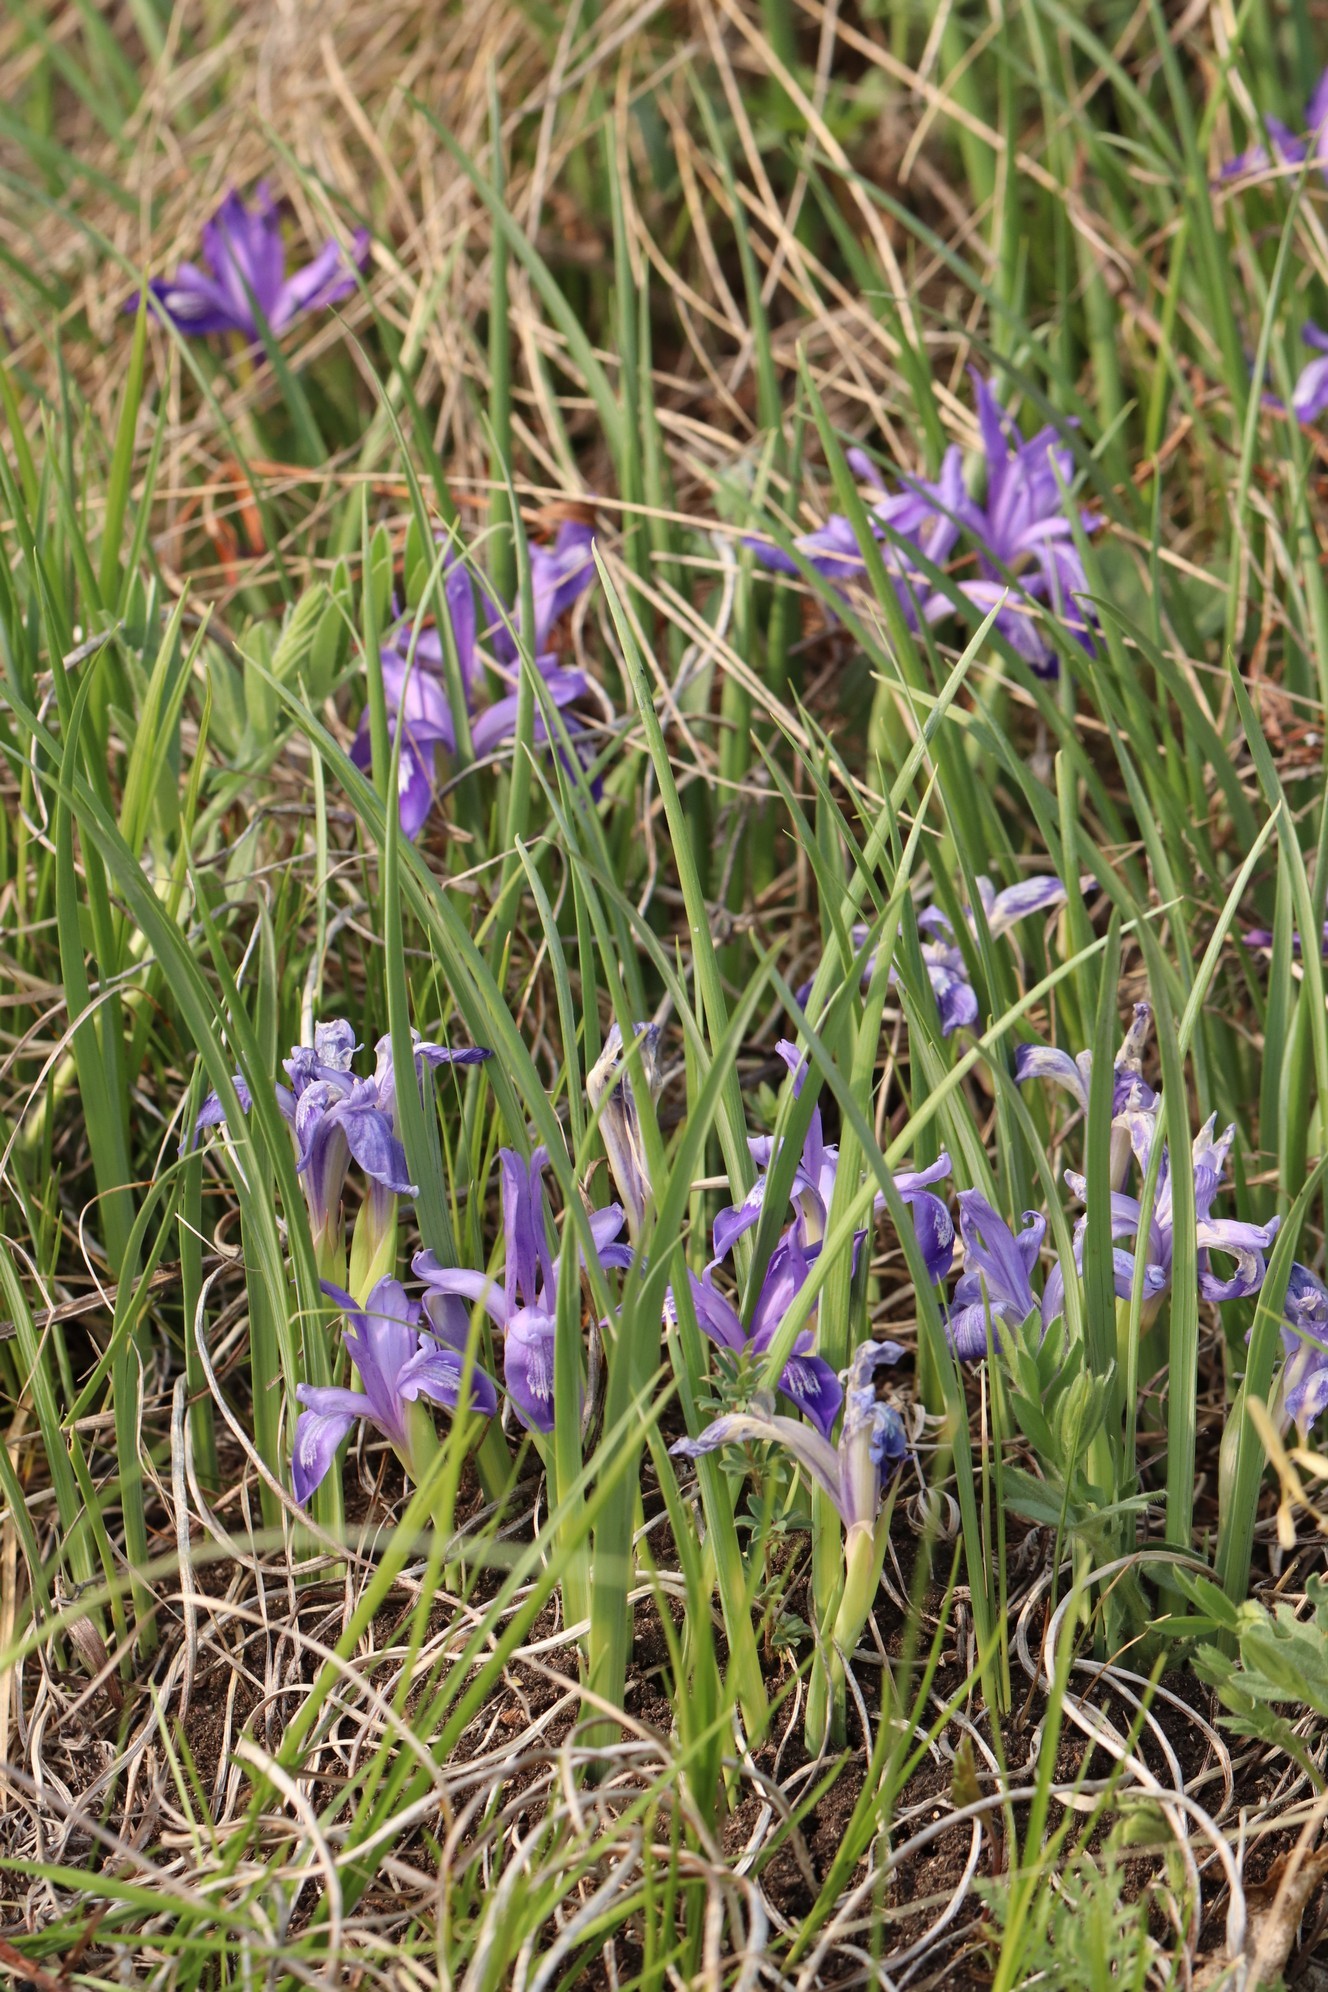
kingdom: Plantae
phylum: Tracheophyta
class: Liliopsida
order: Asparagales
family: Iridaceae
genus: Iris
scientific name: Iris ruthenica
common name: Purple-bract iris
